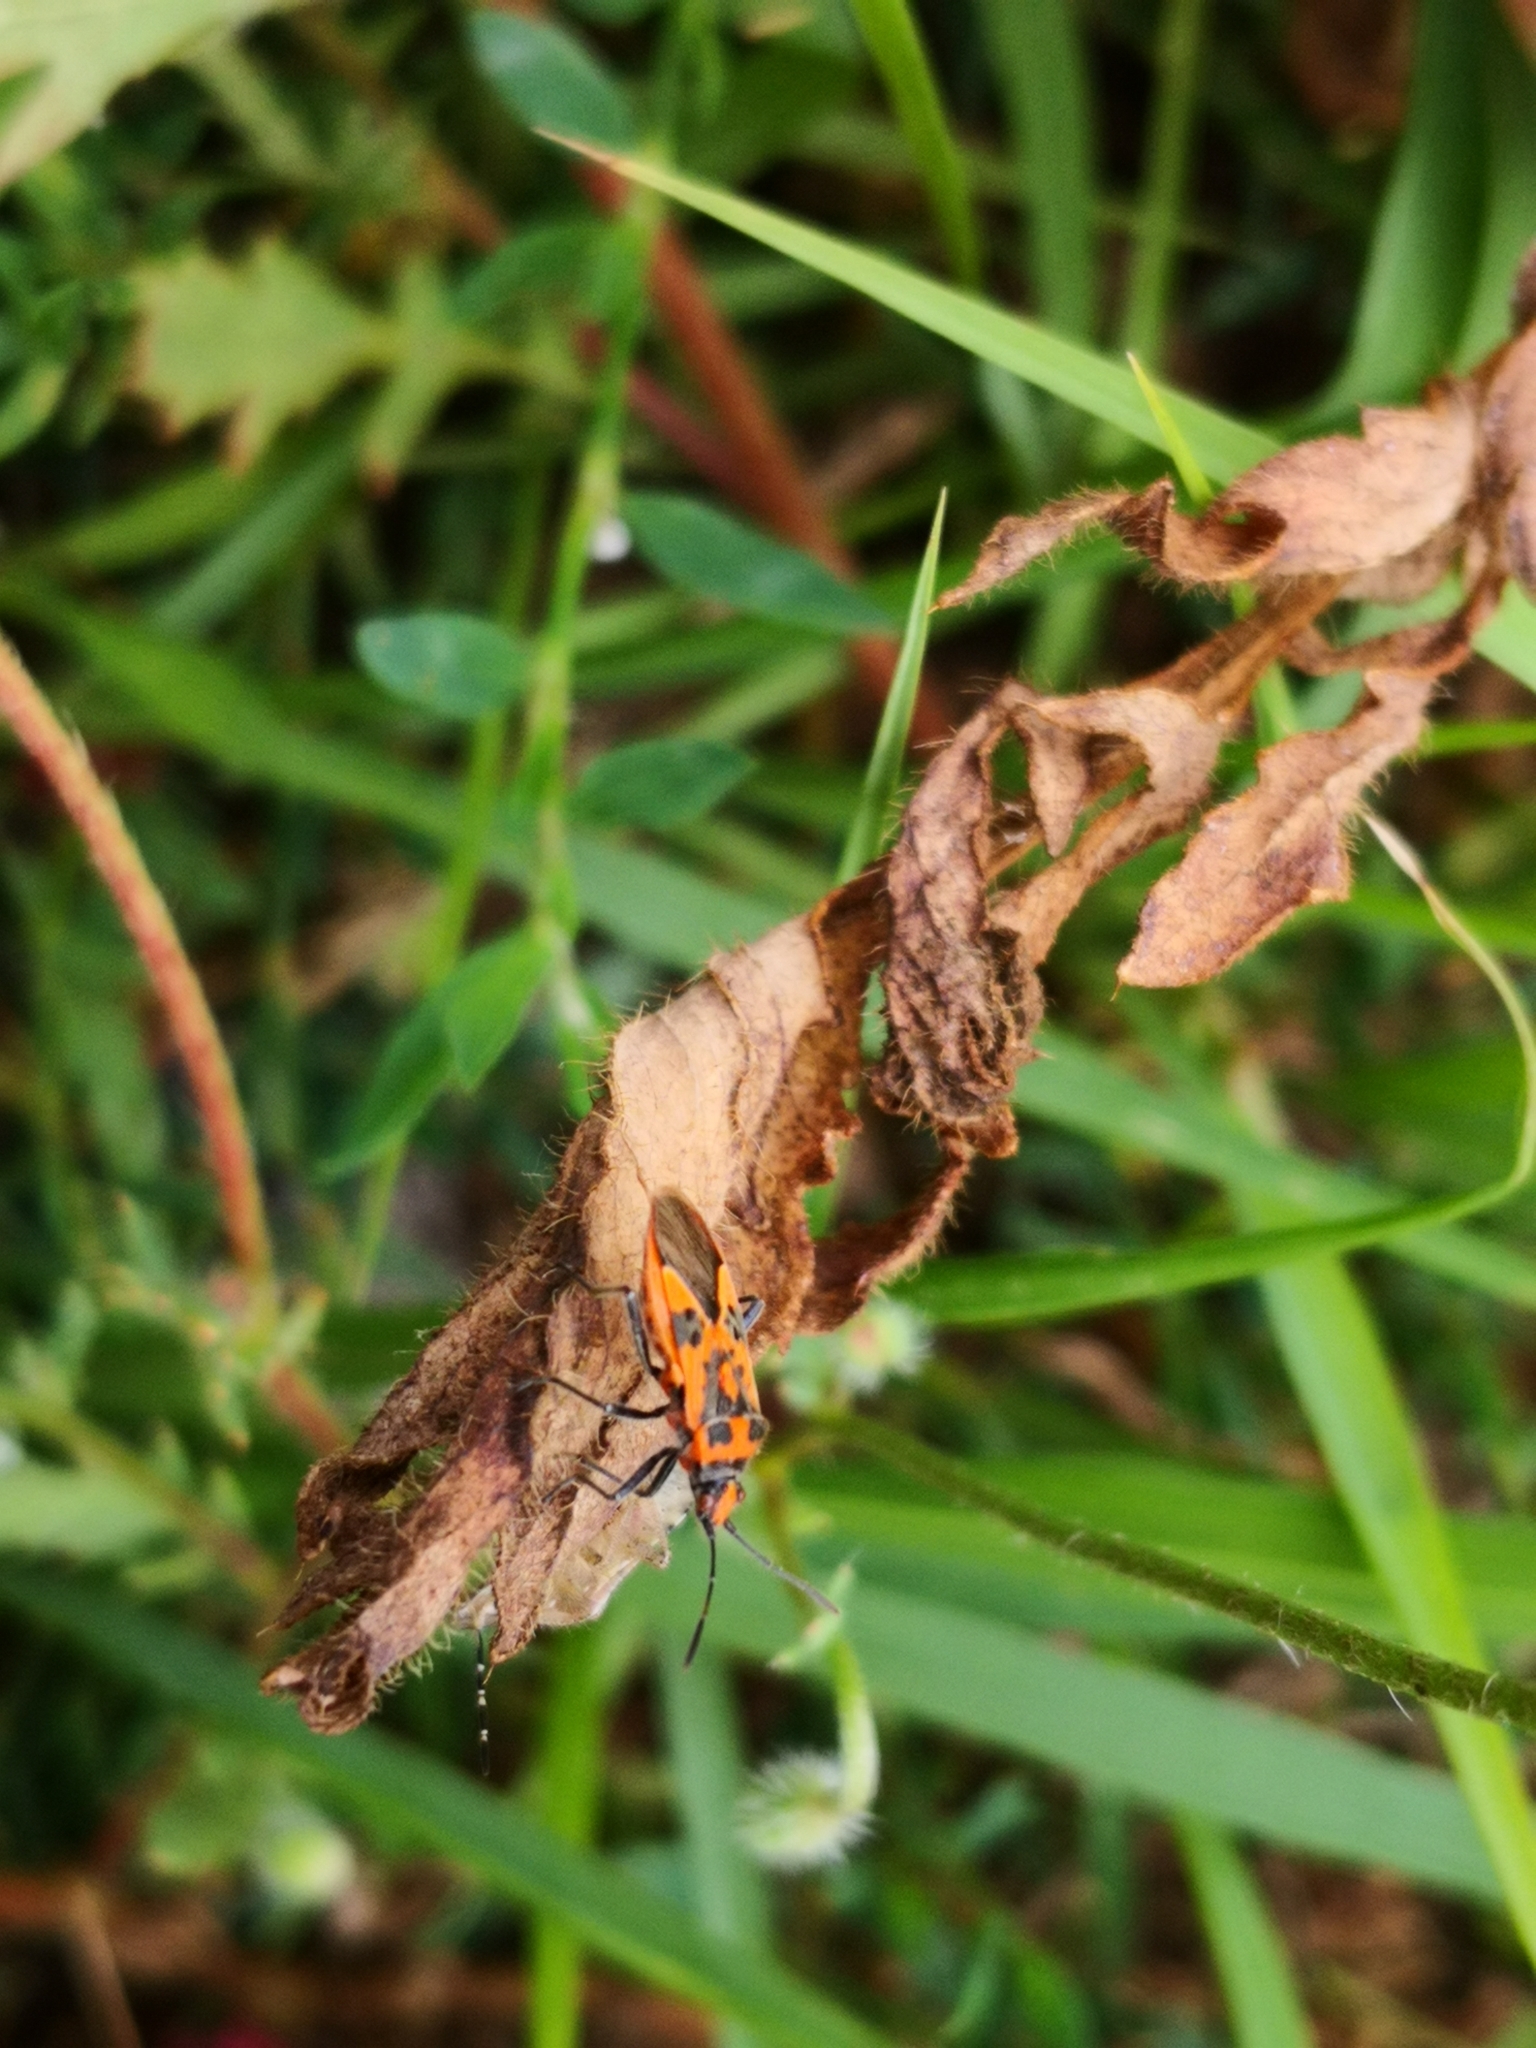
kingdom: Animalia
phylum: Arthropoda
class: Insecta
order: Hemiptera
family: Rhopalidae
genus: Corizus
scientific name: Corizus hyoscyami
